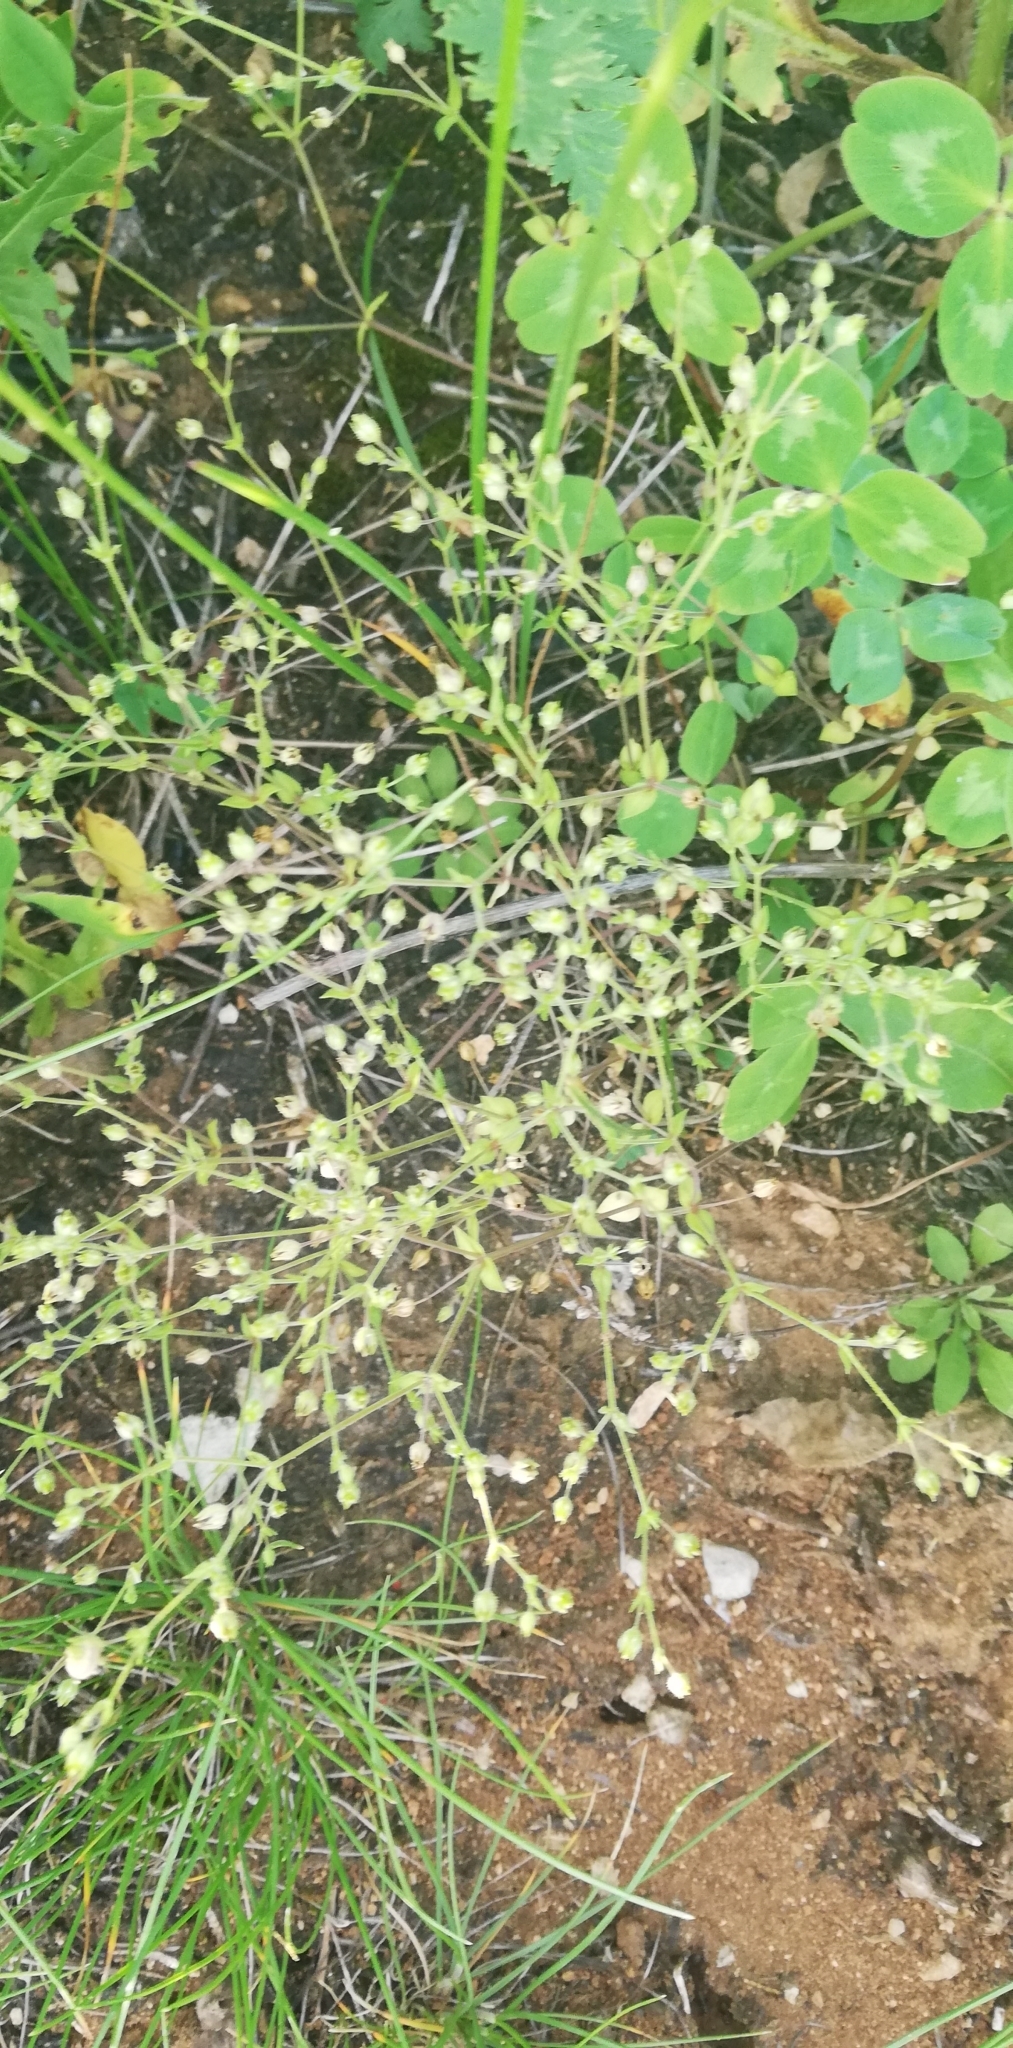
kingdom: Plantae
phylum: Tracheophyta
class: Magnoliopsida
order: Caryophyllales
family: Caryophyllaceae
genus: Arenaria
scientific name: Arenaria serpyllifolia
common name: Thyme-leaved sandwort
